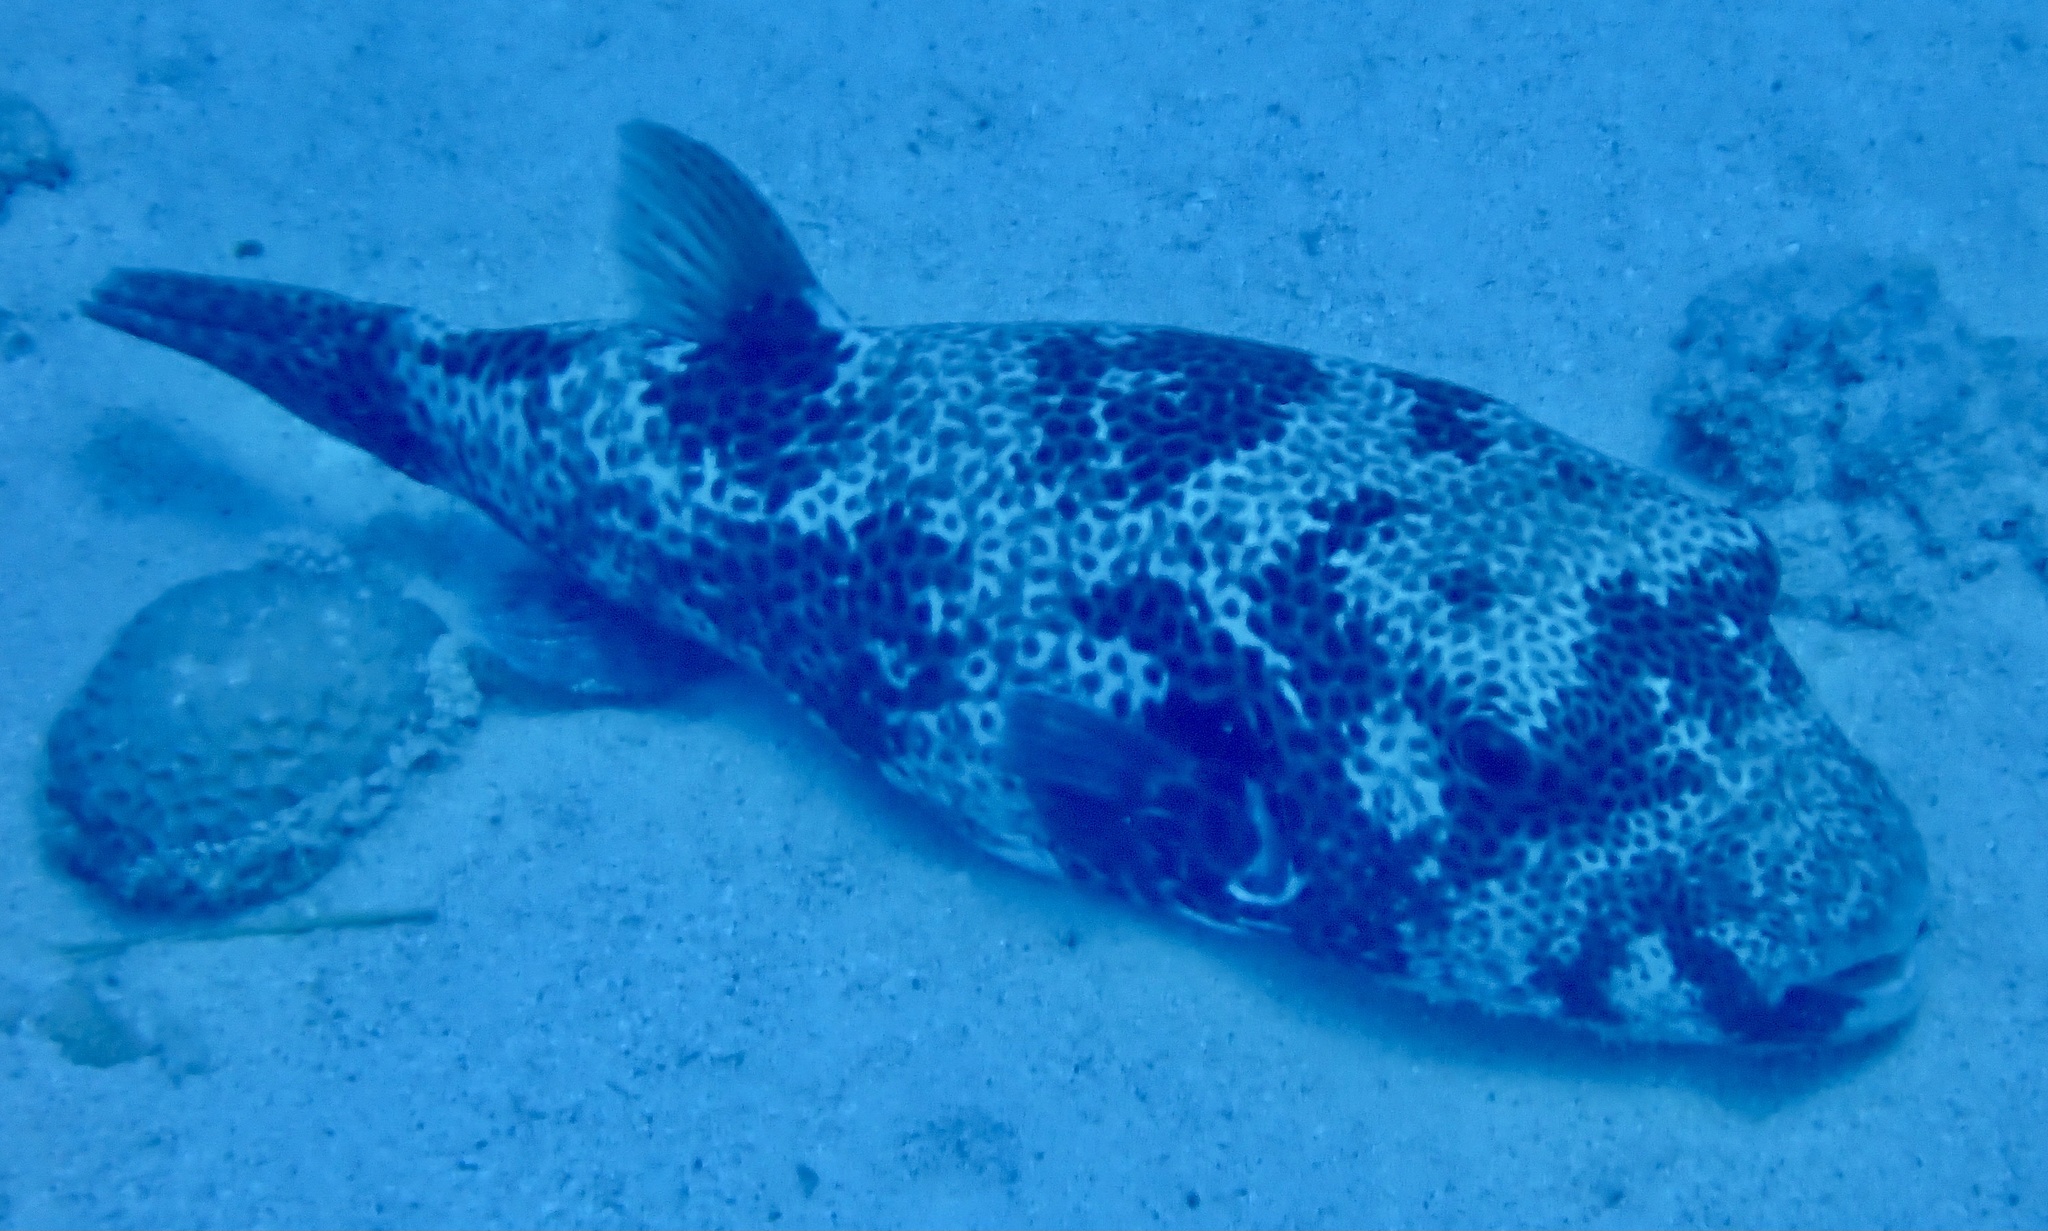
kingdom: Animalia
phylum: Chordata
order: Tetraodontiformes
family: Tetraodontidae
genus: Arothron
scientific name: Arothron stellatus
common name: Star blaasop
